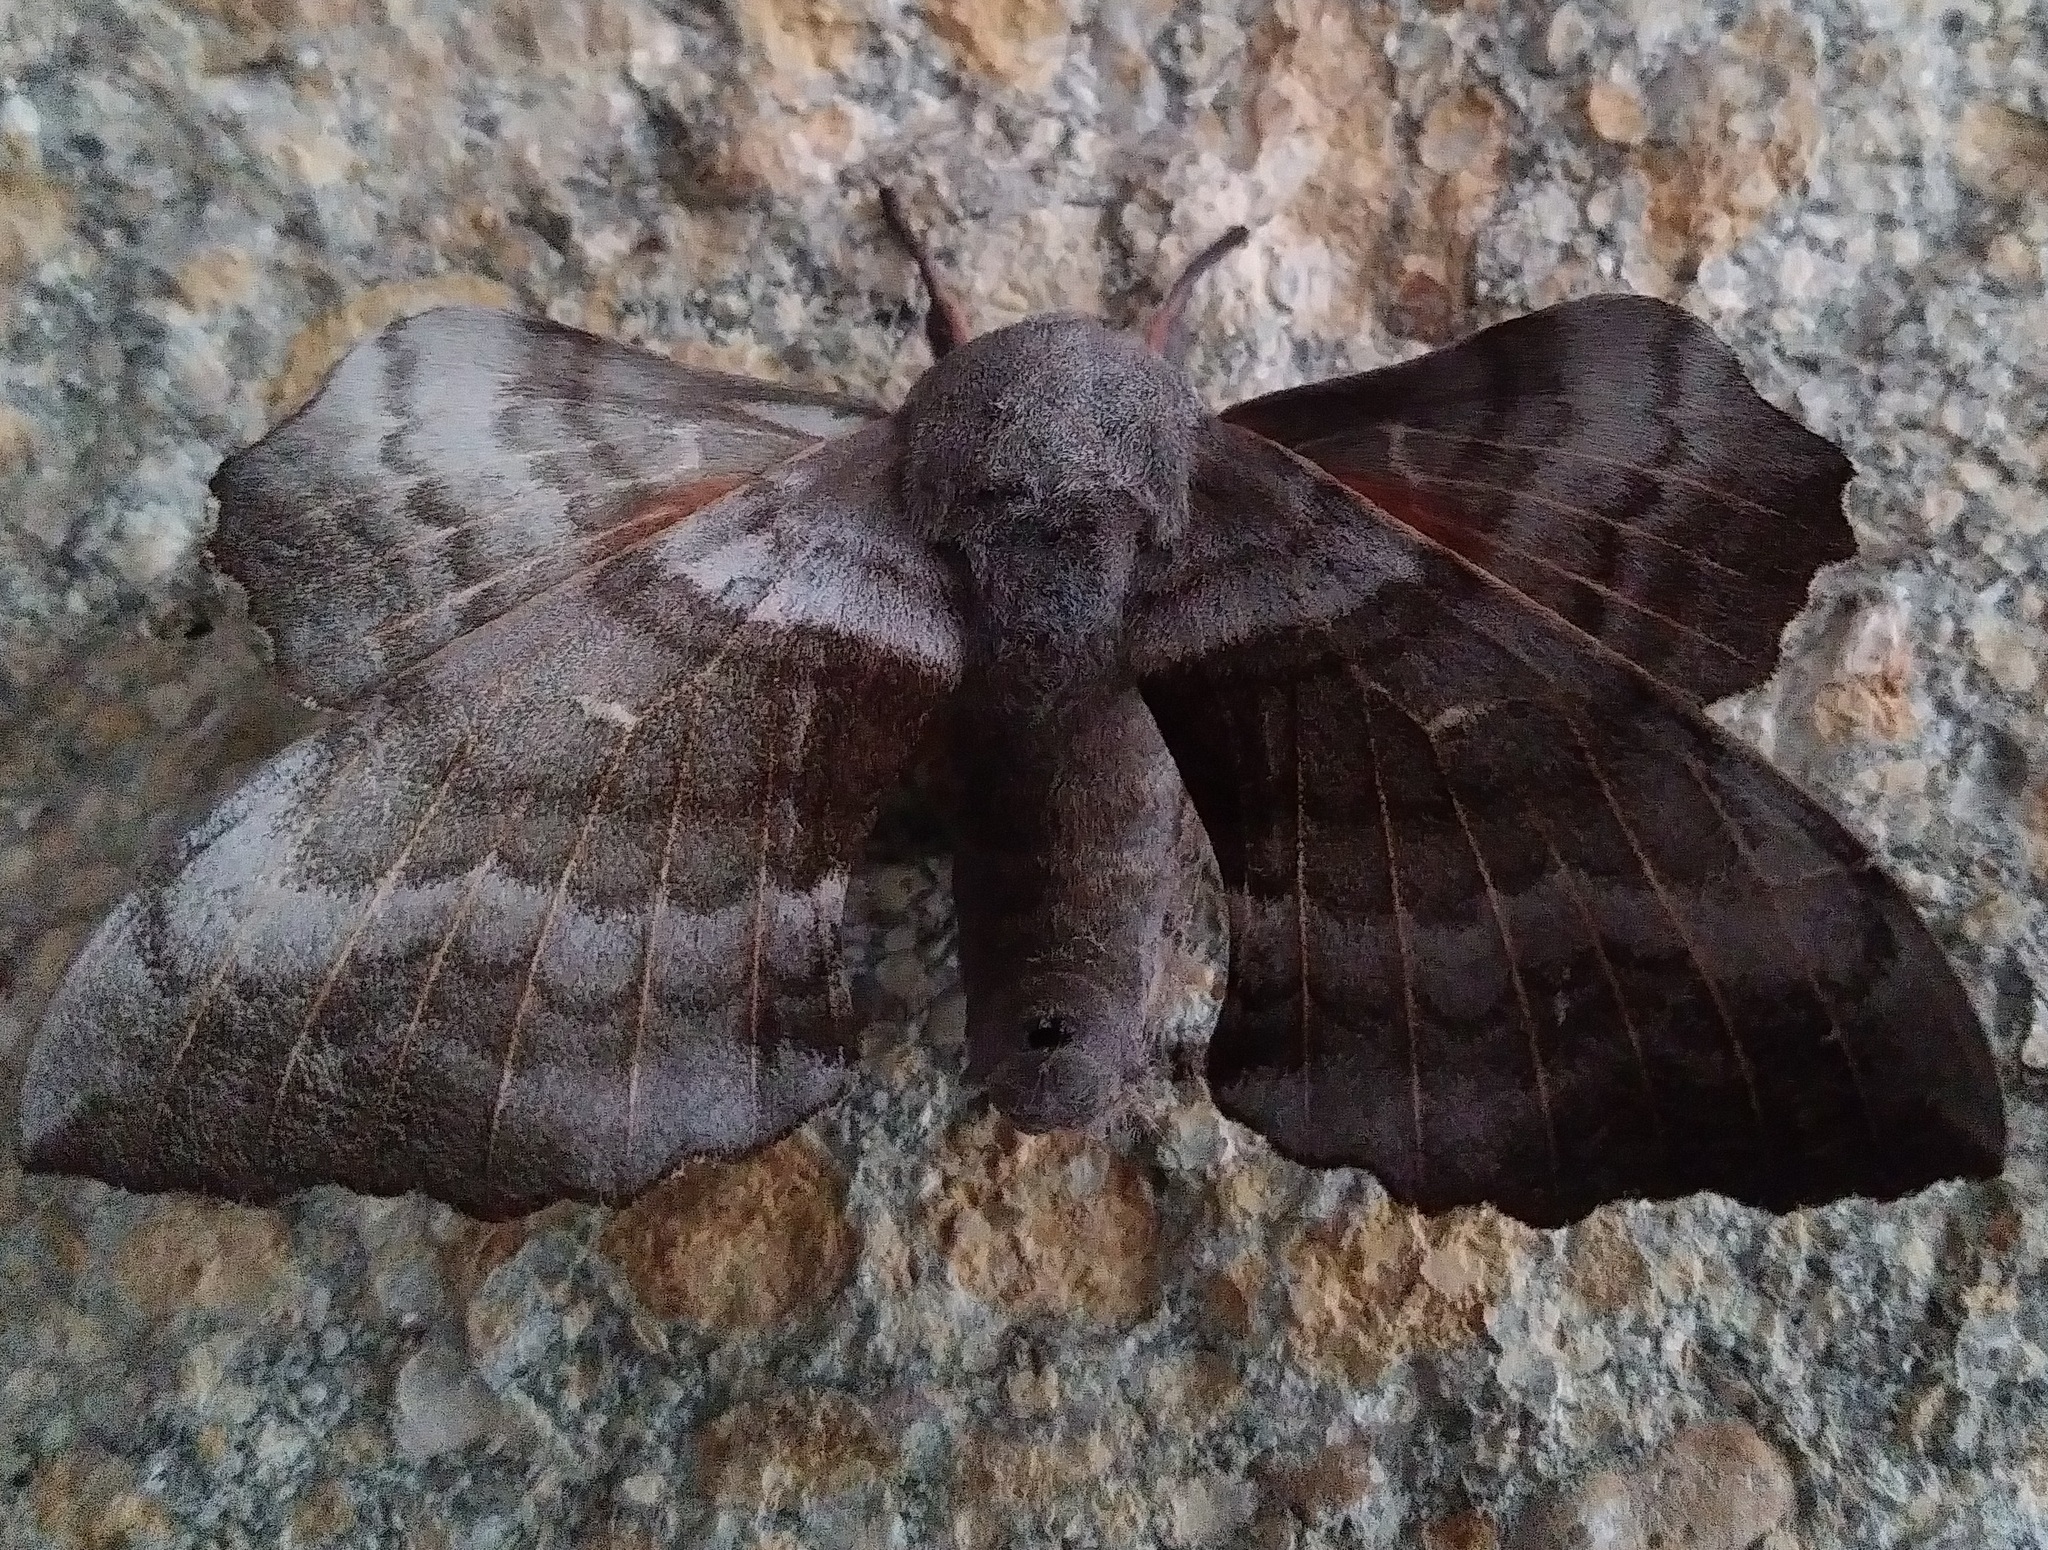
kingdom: Animalia
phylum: Arthropoda
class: Insecta
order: Lepidoptera
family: Sphingidae
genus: Laothoe
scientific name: Laothoe populi
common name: Poplar hawk-moth
